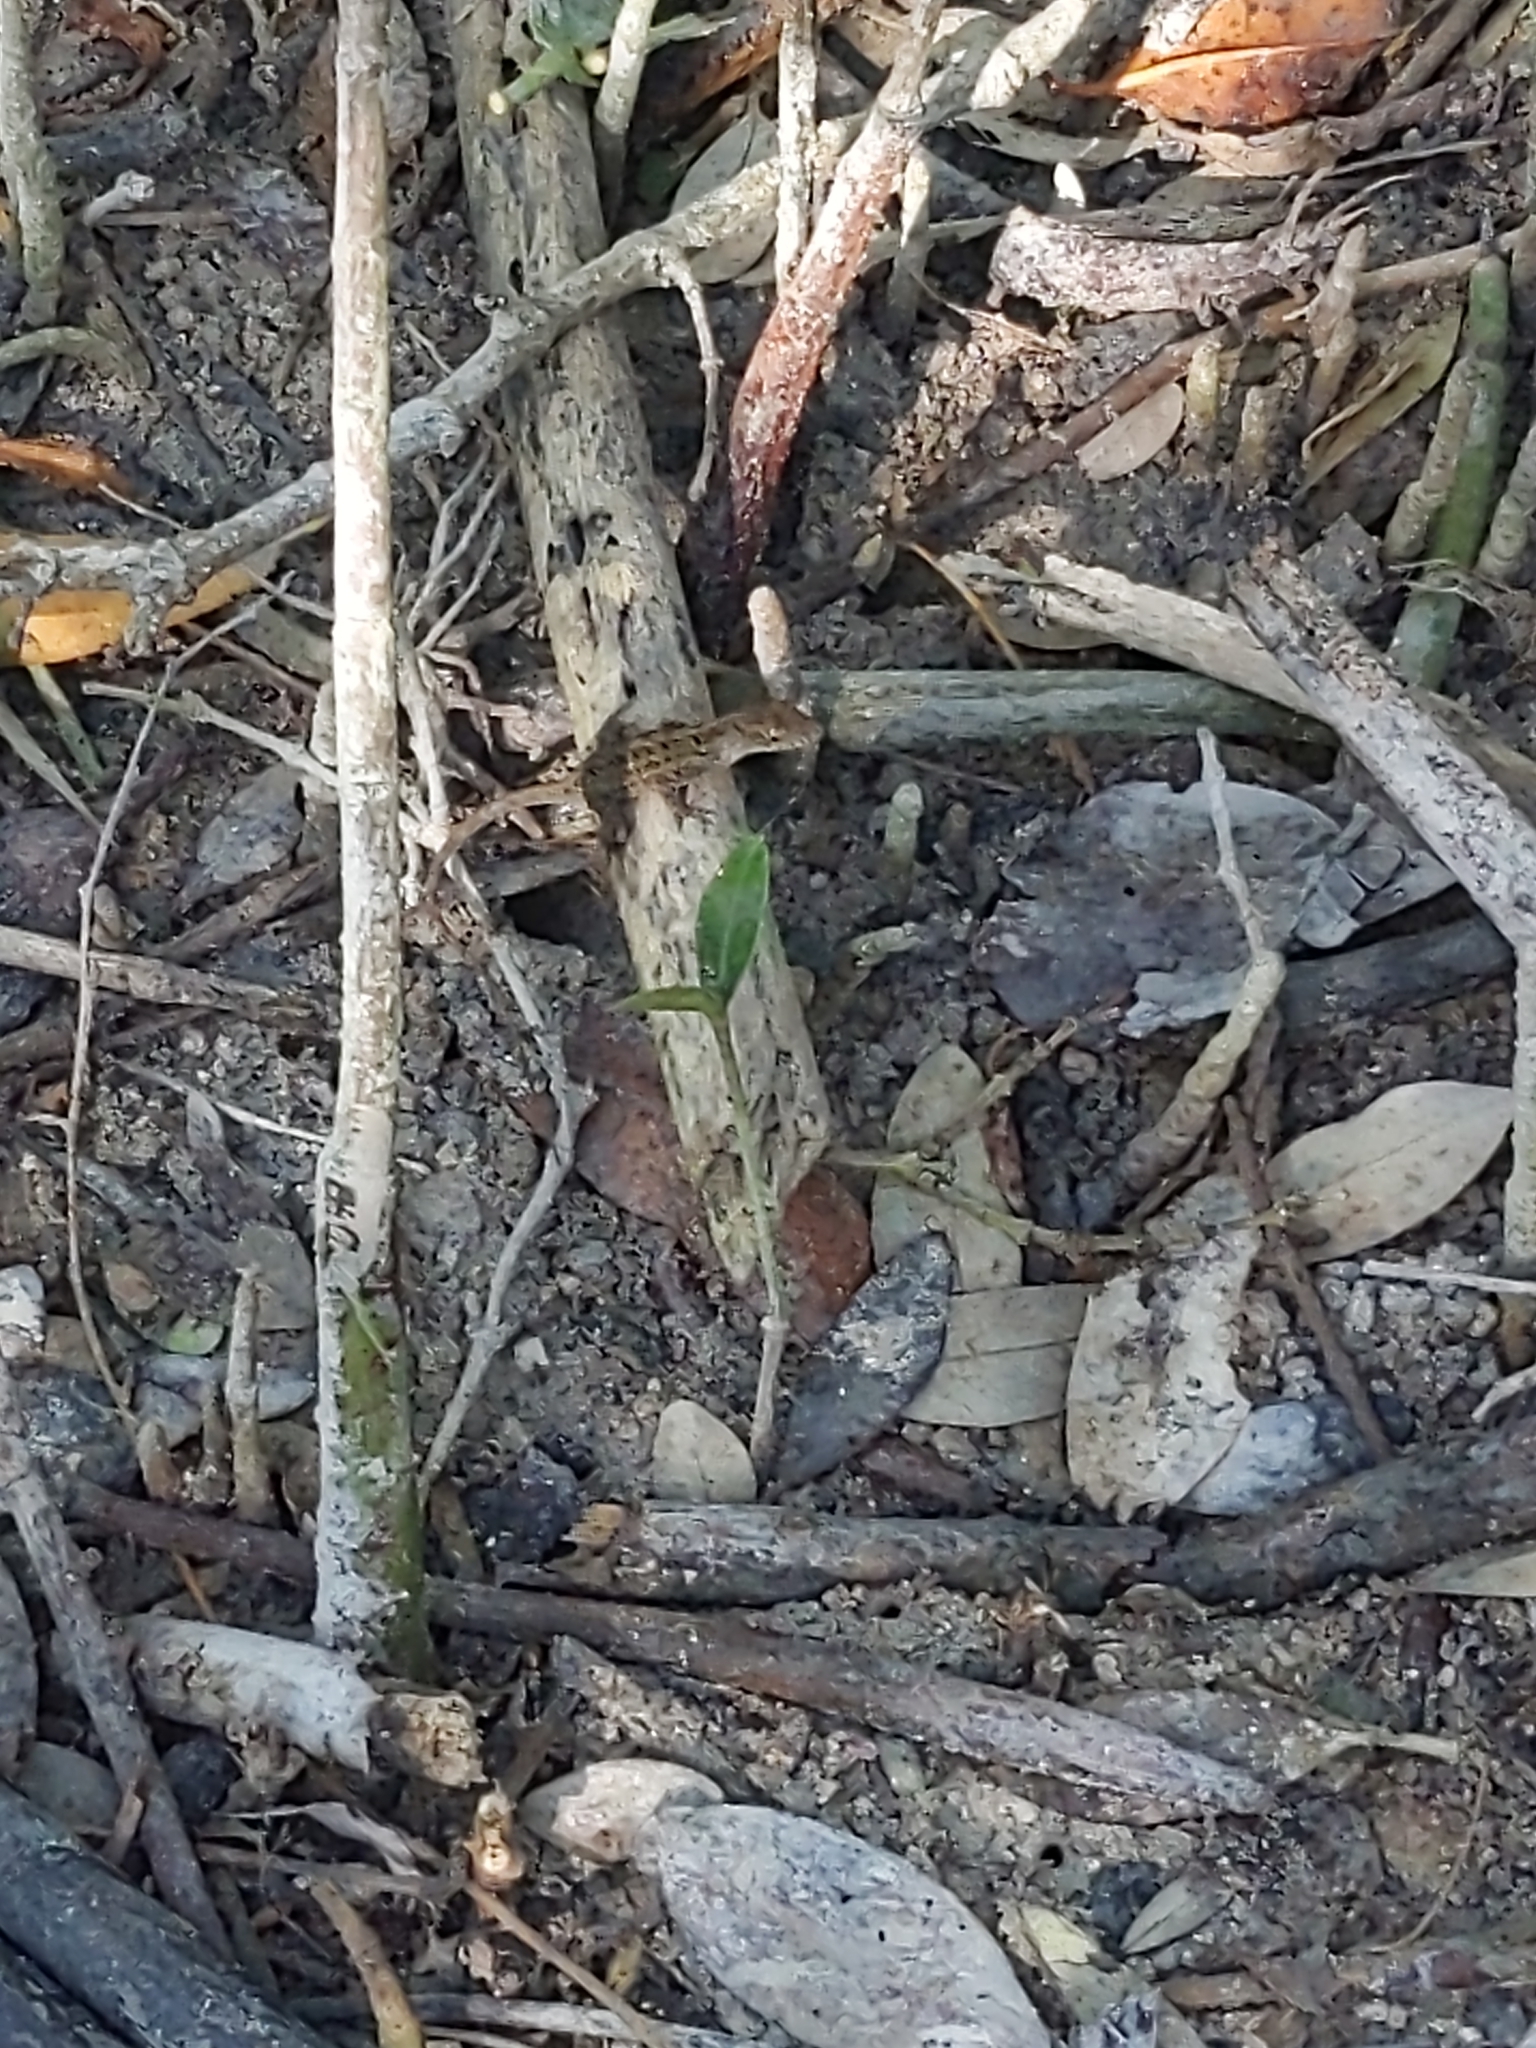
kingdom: Animalia
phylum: Chordata
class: Squamata
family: Dactyloidae
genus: Anolis
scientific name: Anolis sagrei
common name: Brown anole
